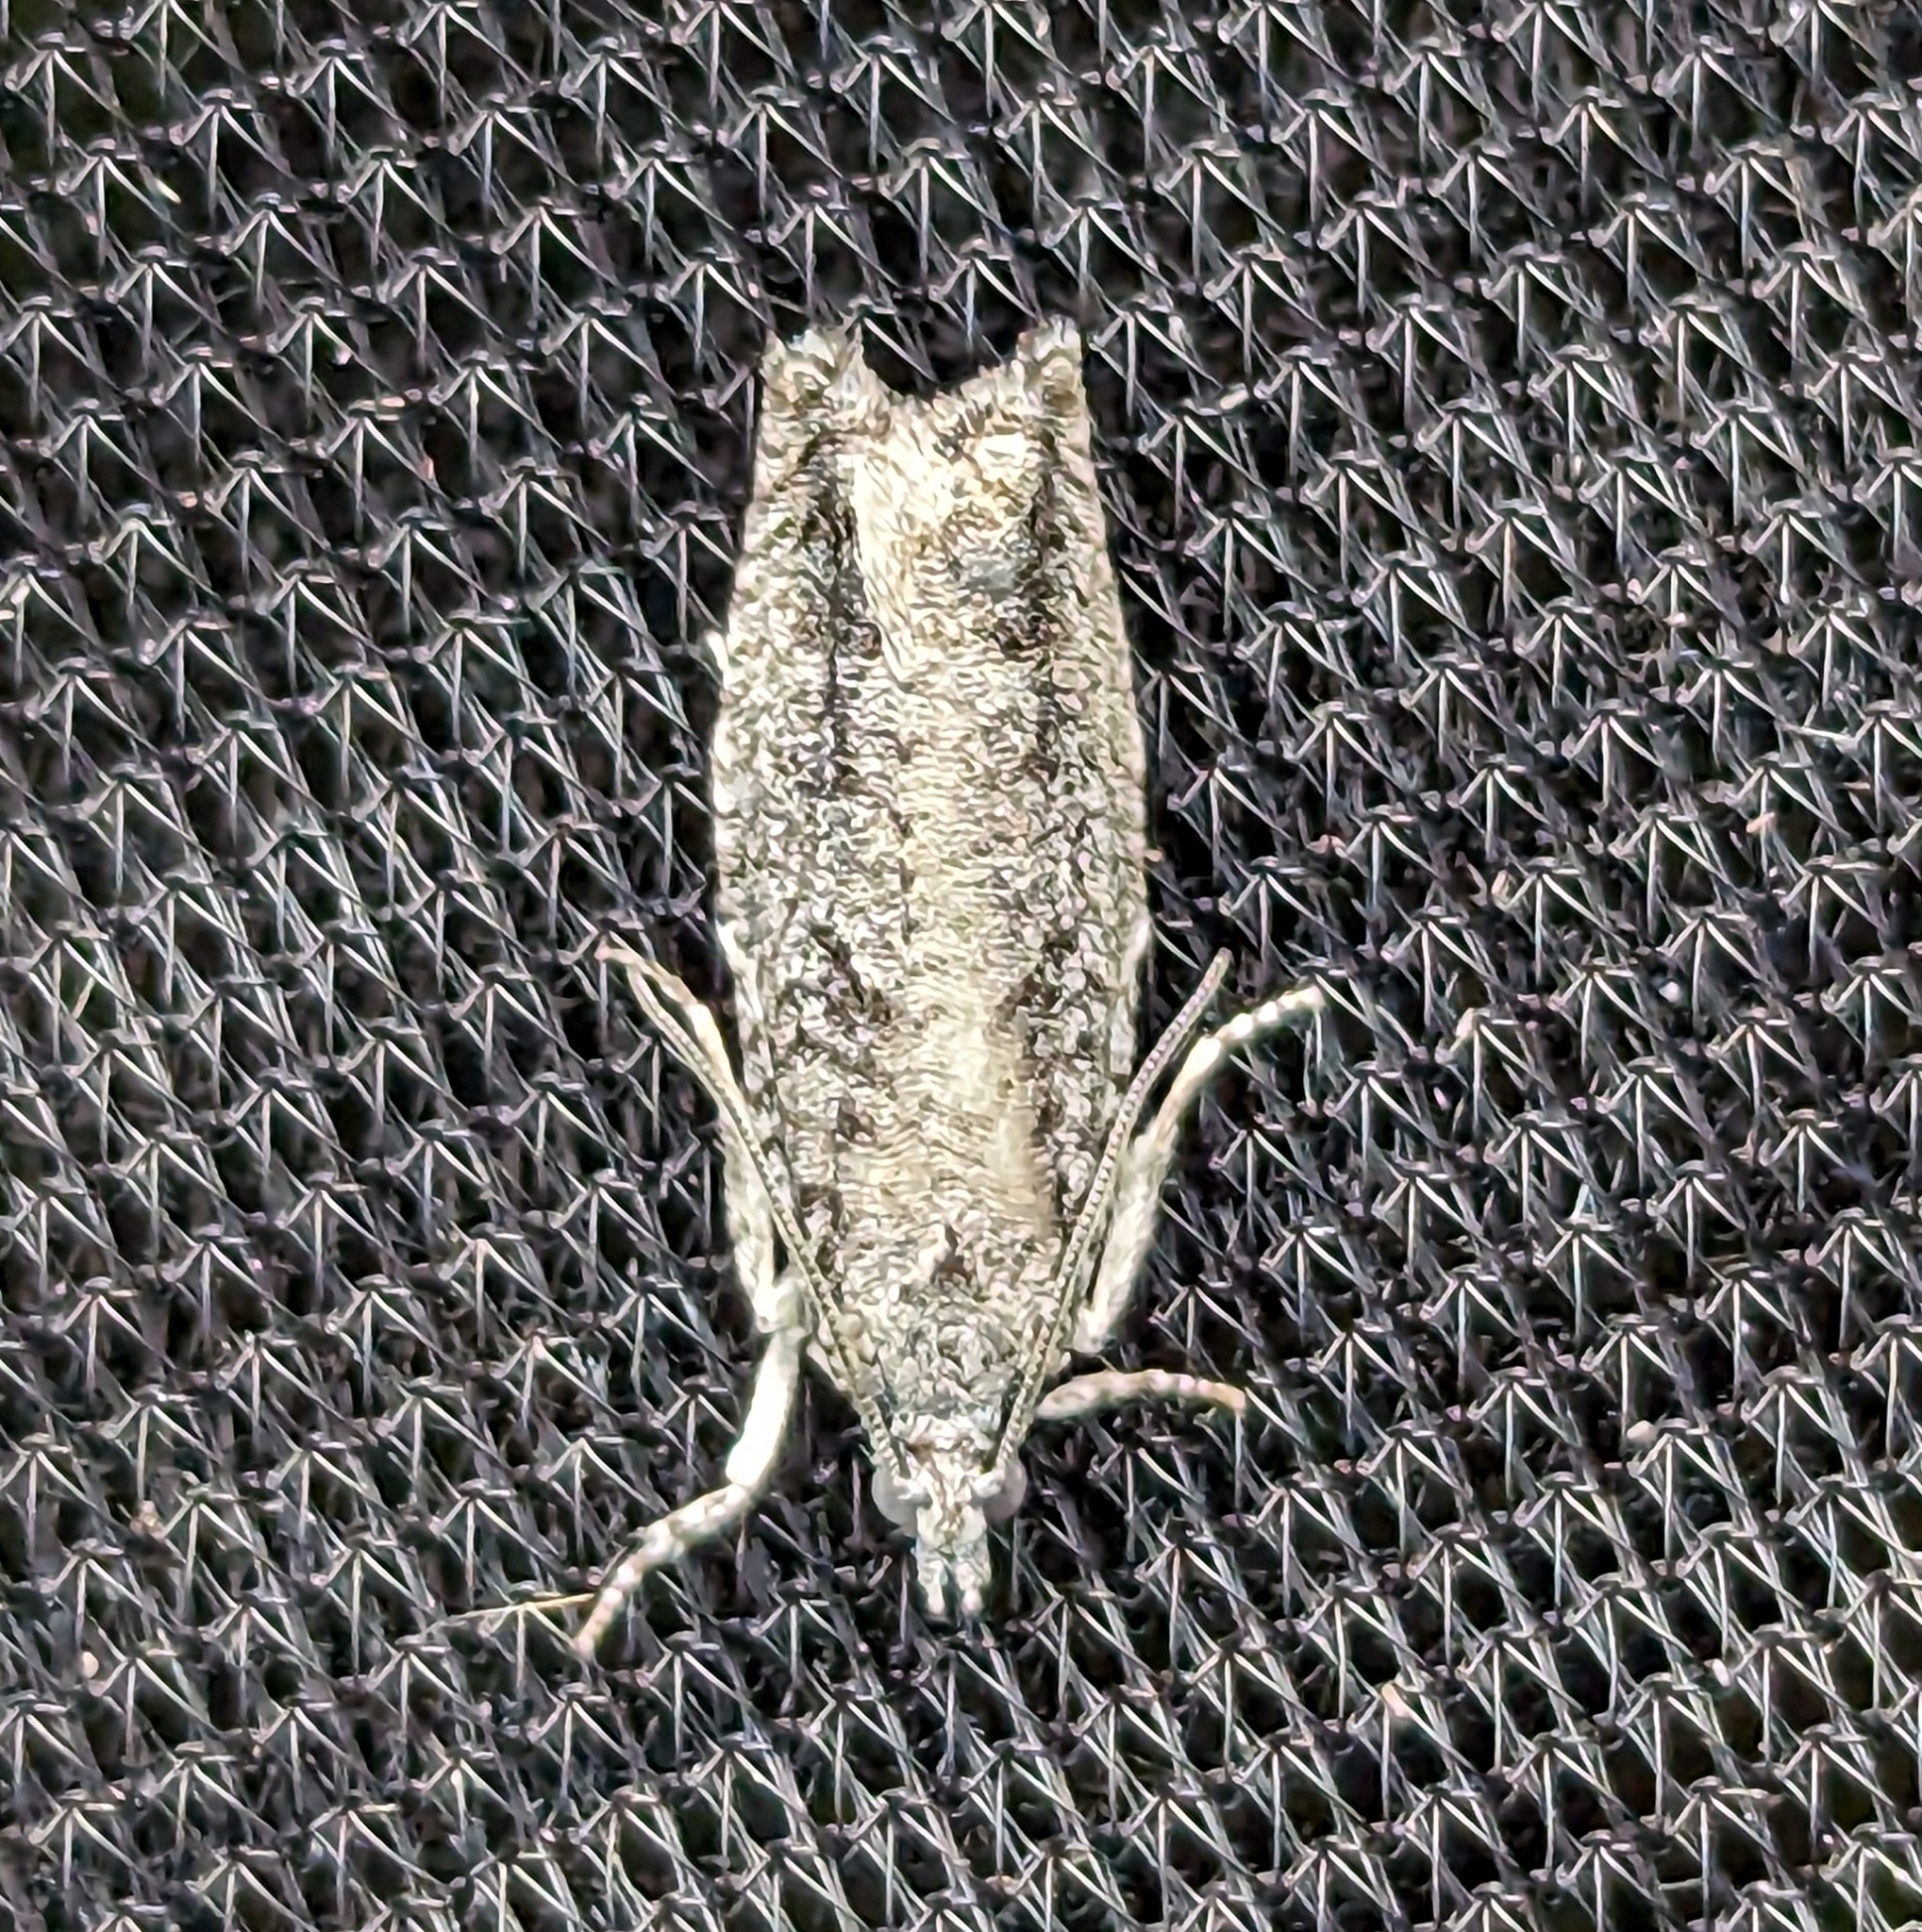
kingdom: Animalia
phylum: Arthropoda
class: Insecta
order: Lepidoptera
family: Tortricidae
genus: Epinotia
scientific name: Epinotia cinereana
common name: Grey aspen bell
